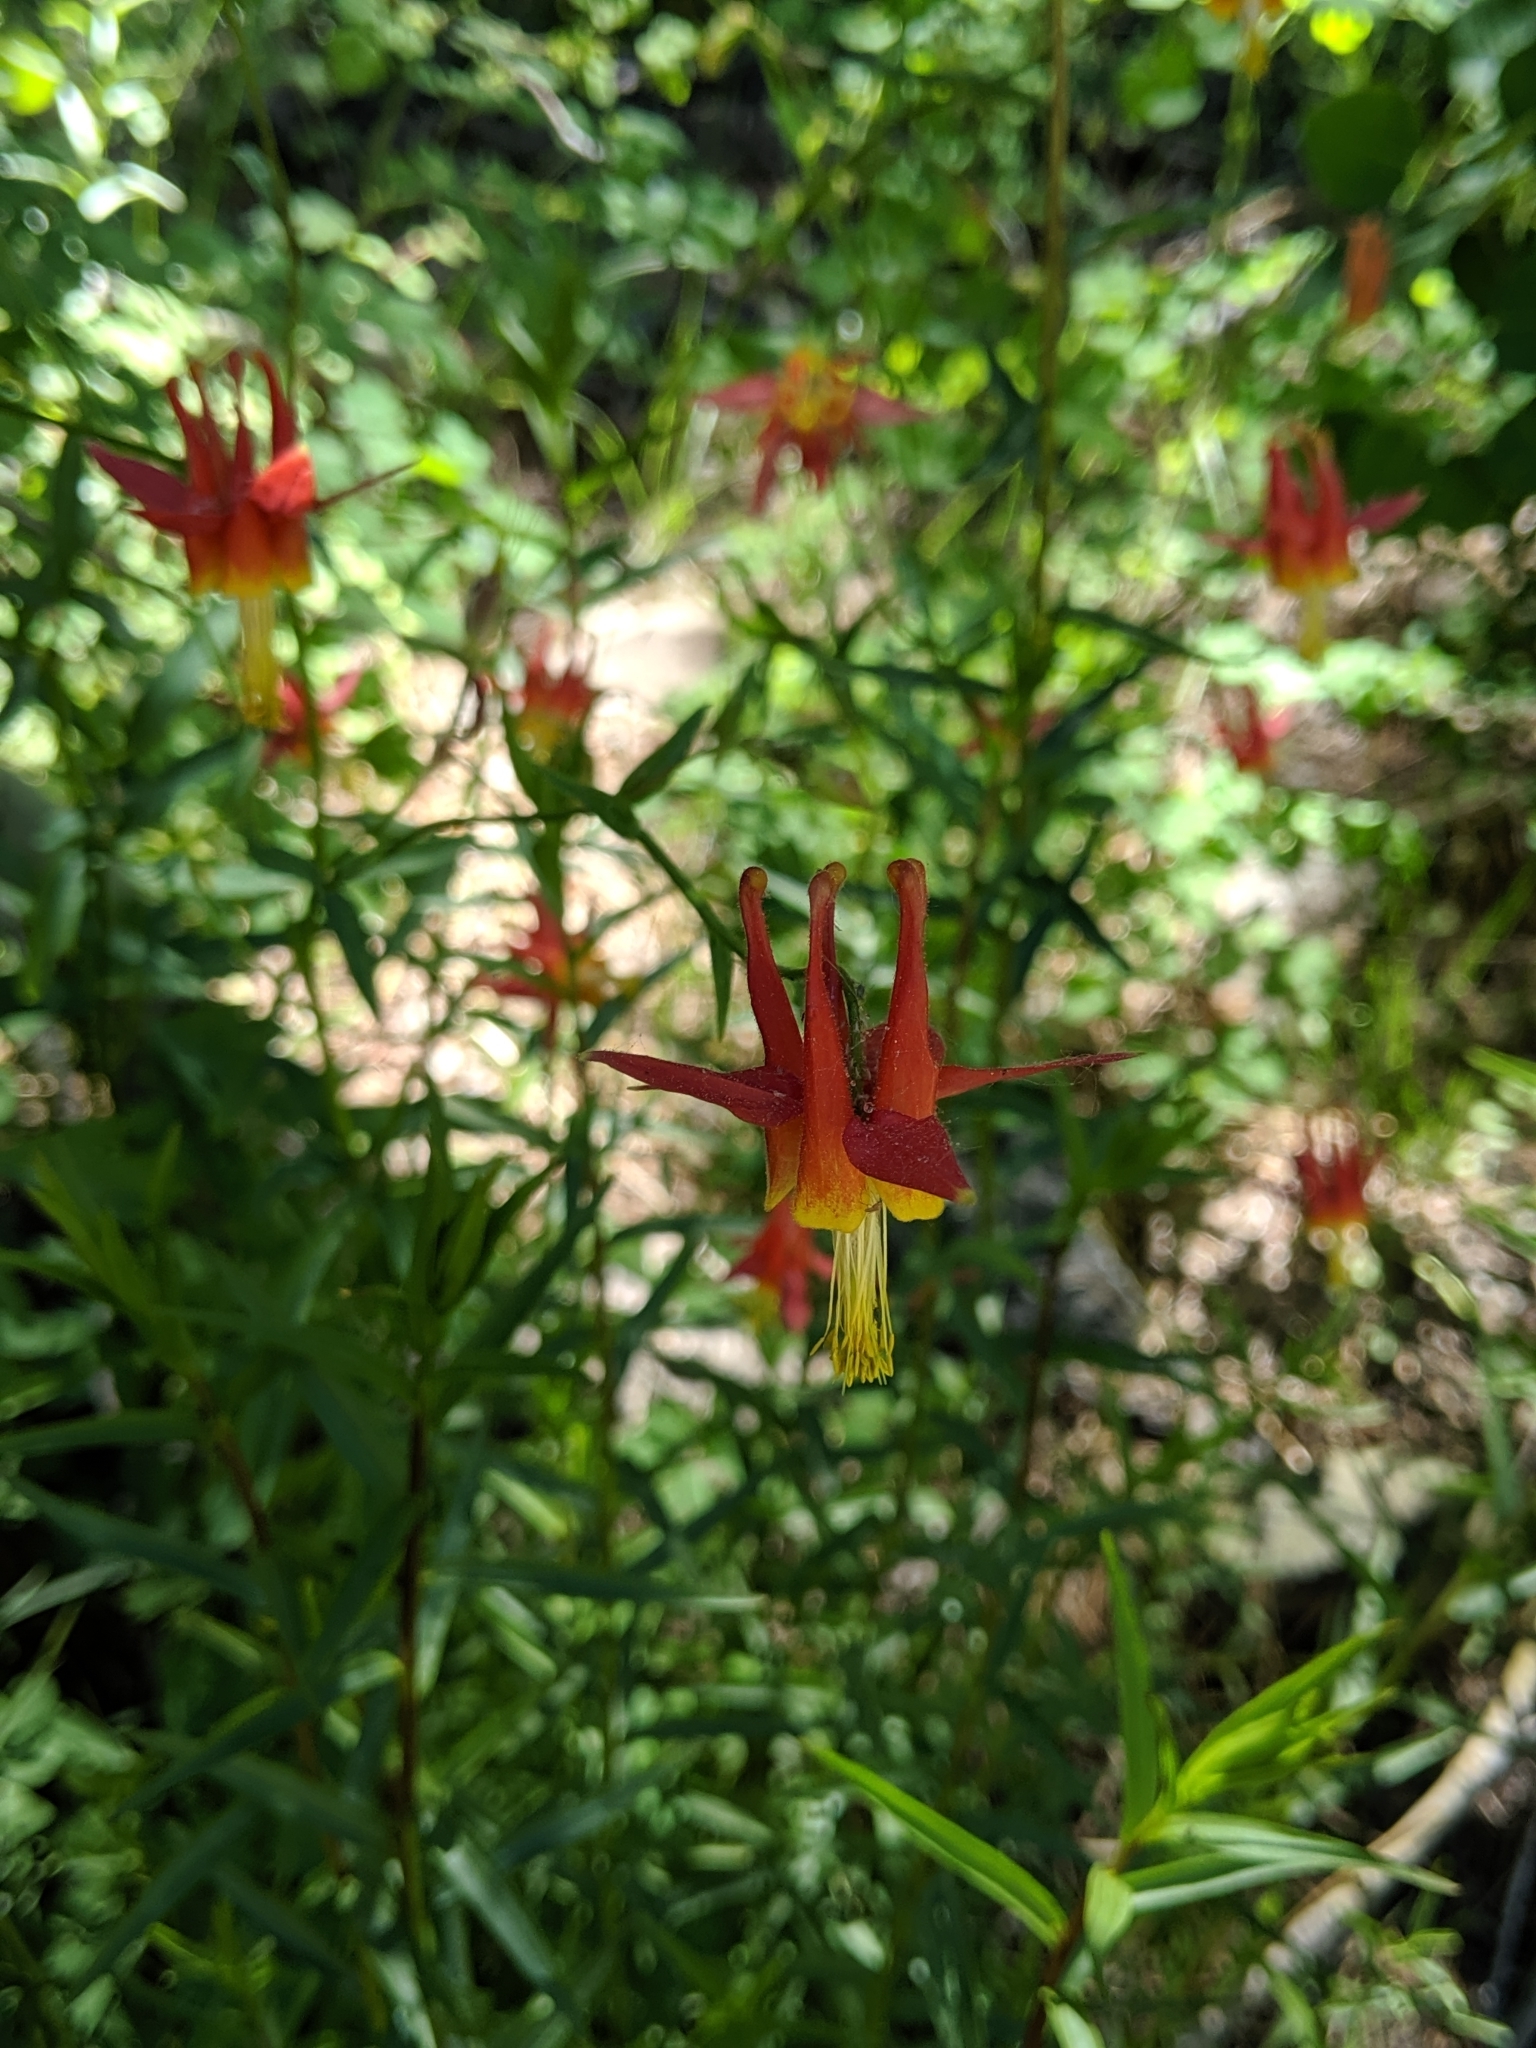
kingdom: Plantae
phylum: Tracheophyta
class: Magnoliopsida
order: Ranunculales
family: Ranunculaceae
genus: Aquilegia
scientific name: Aquilegia formosa
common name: Sitka columbine
